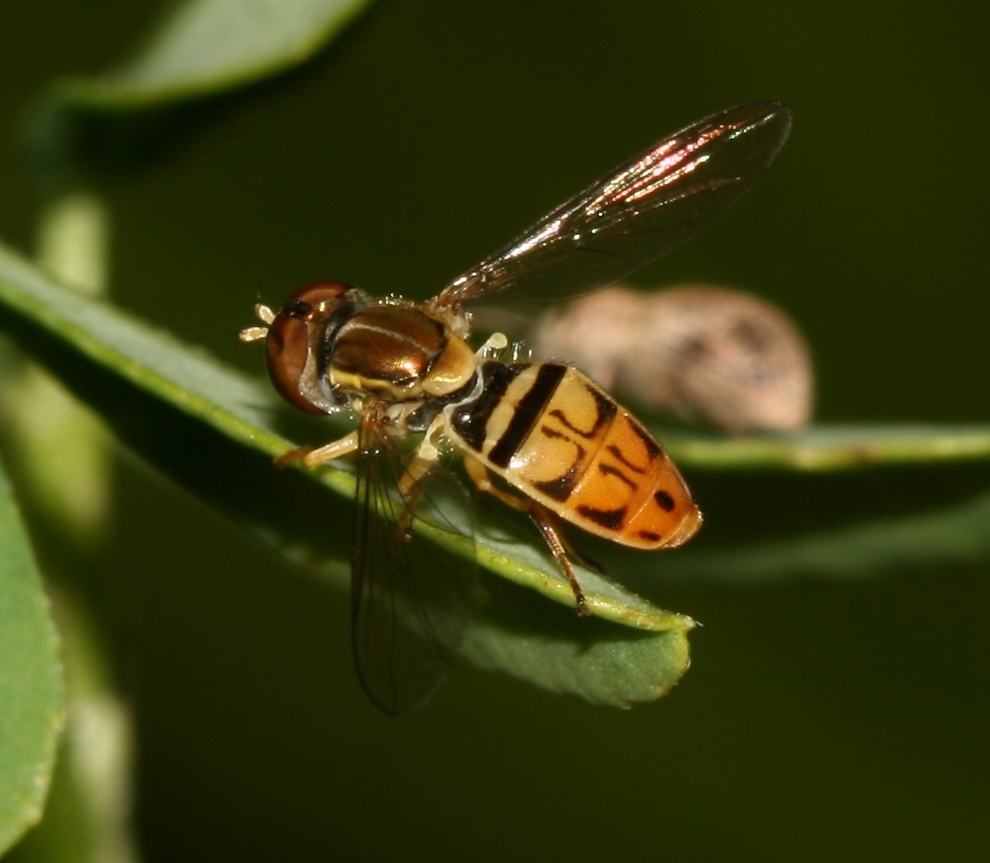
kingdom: Animalia
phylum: Arthropoda
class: Insecta
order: Diptera
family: Syrphidae
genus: Toxomerus
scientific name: Toxomerus marginatus
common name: Syrphid fly
